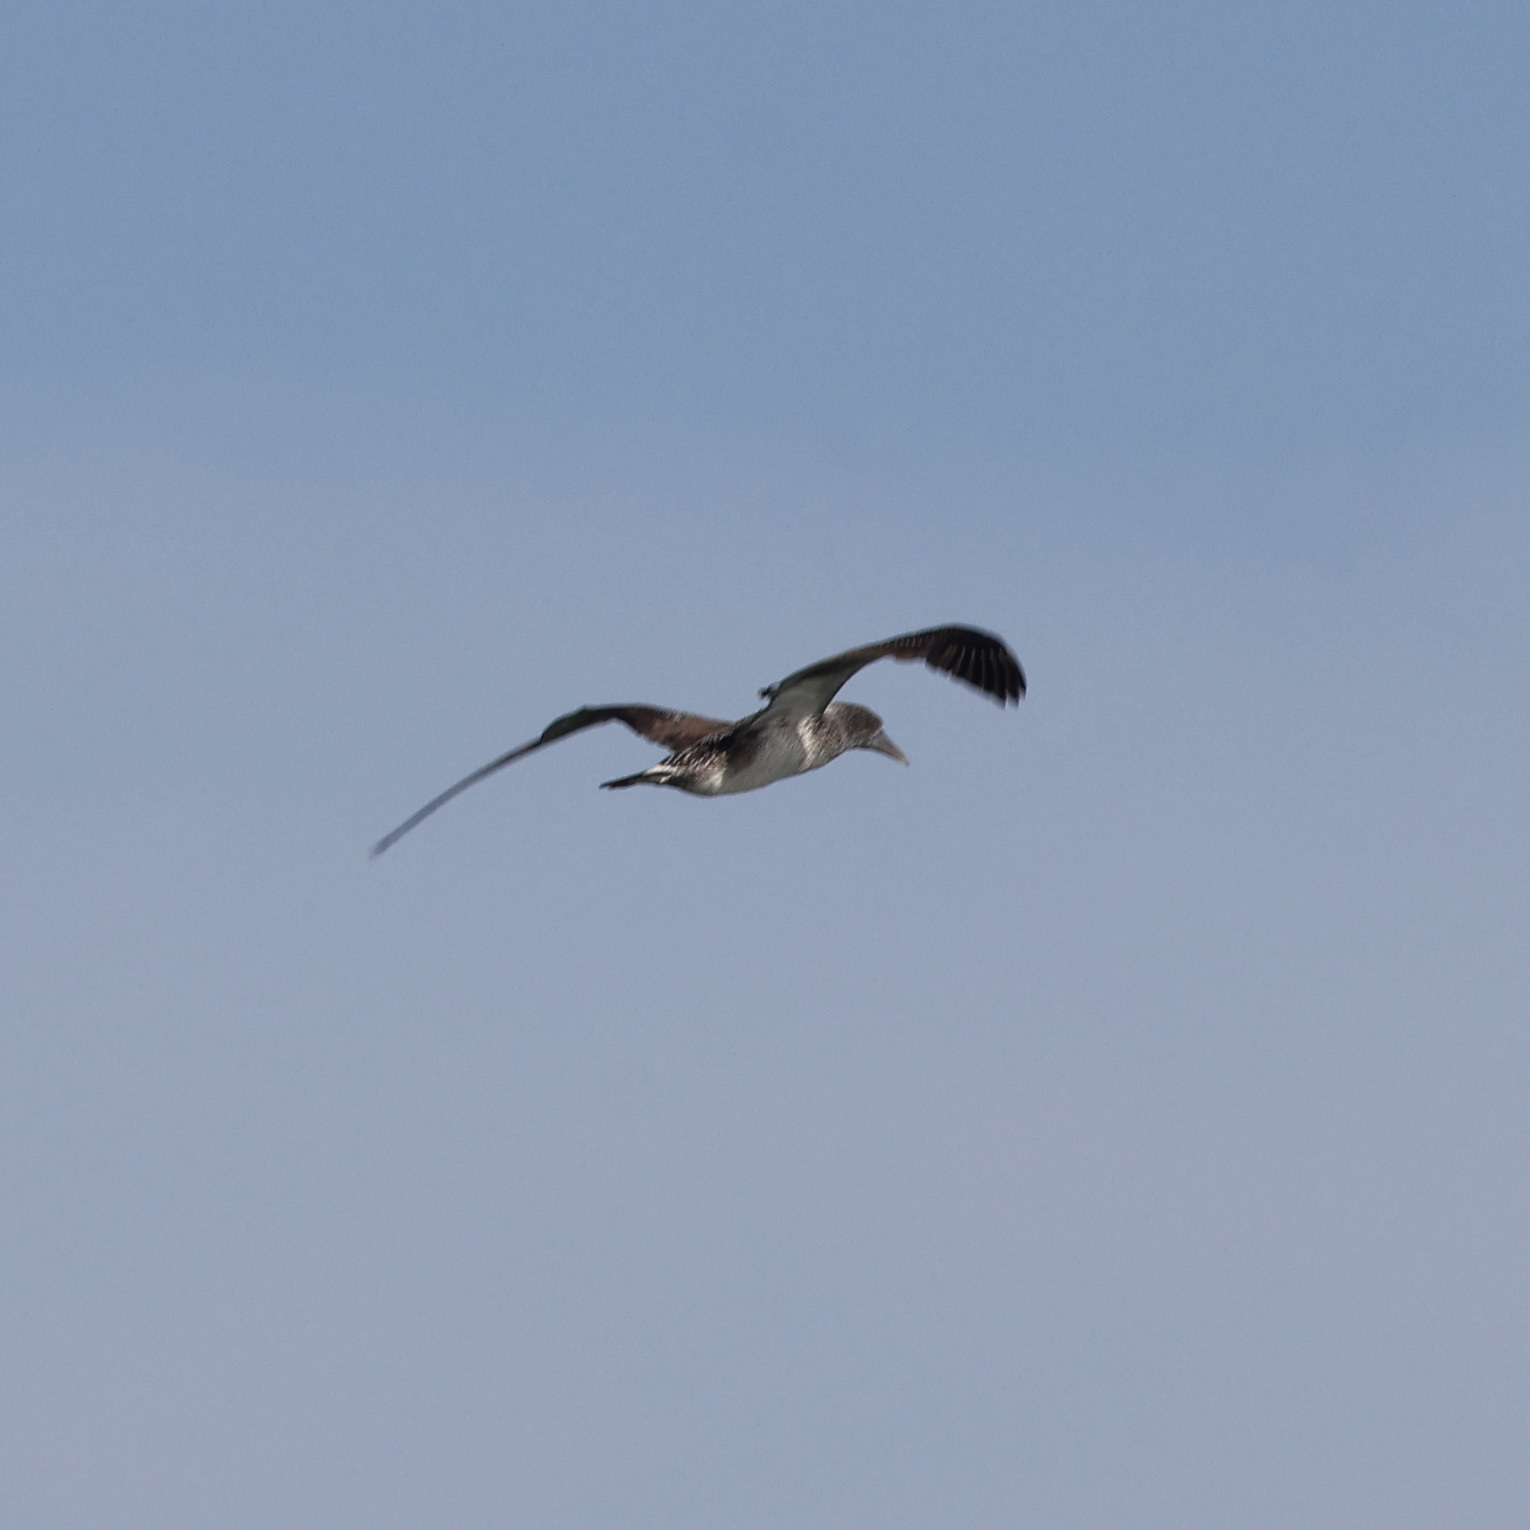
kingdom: Animalia
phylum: Chordata
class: Aves
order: Suliformes
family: Sulidae
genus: Morus
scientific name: Morus bassanus
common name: Northern gannet
